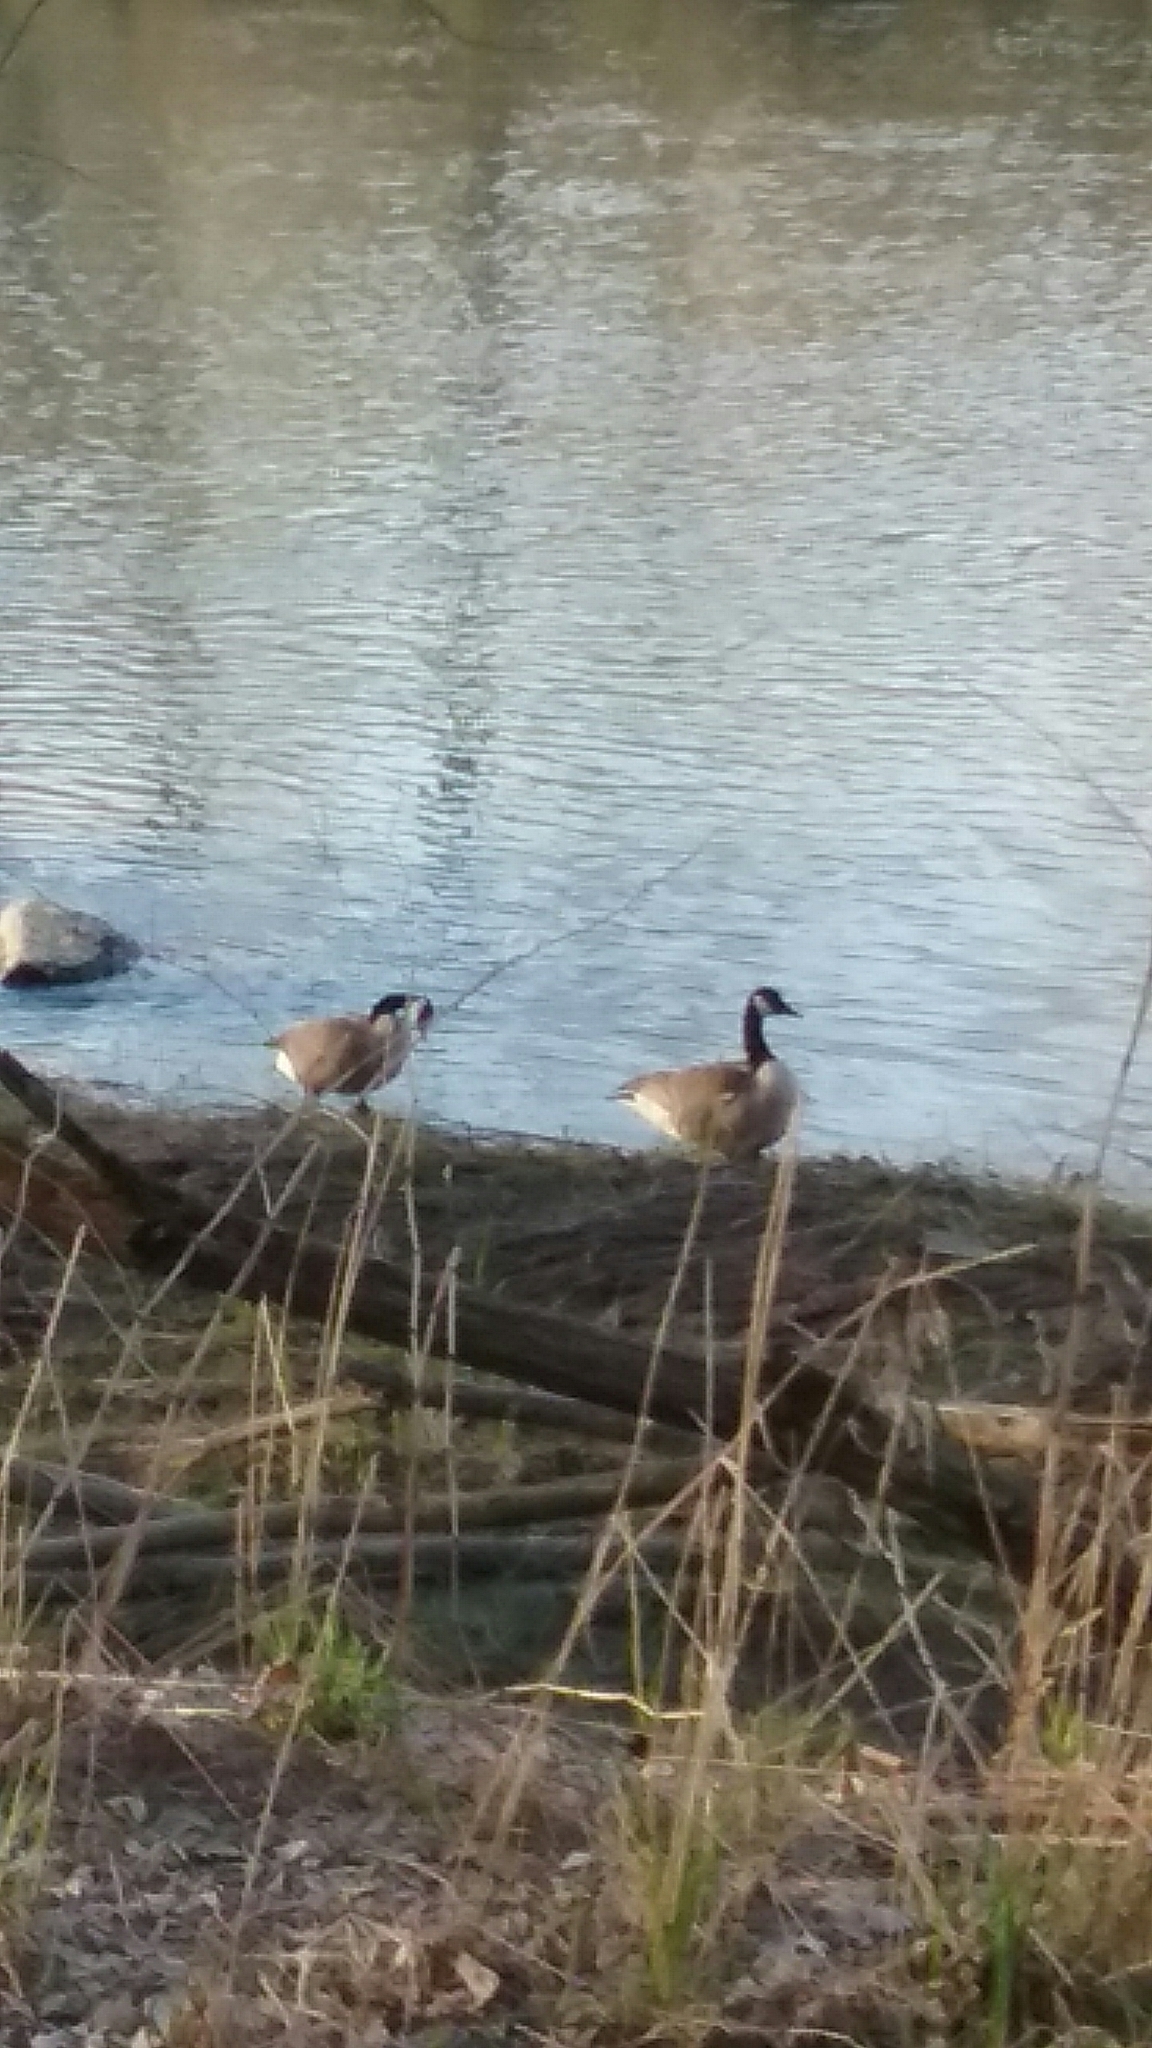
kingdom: Animalia
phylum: Chordata
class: Aves
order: Anseriformes
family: Anatidae
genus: Branta
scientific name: Branta canadensis
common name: Canada goose
